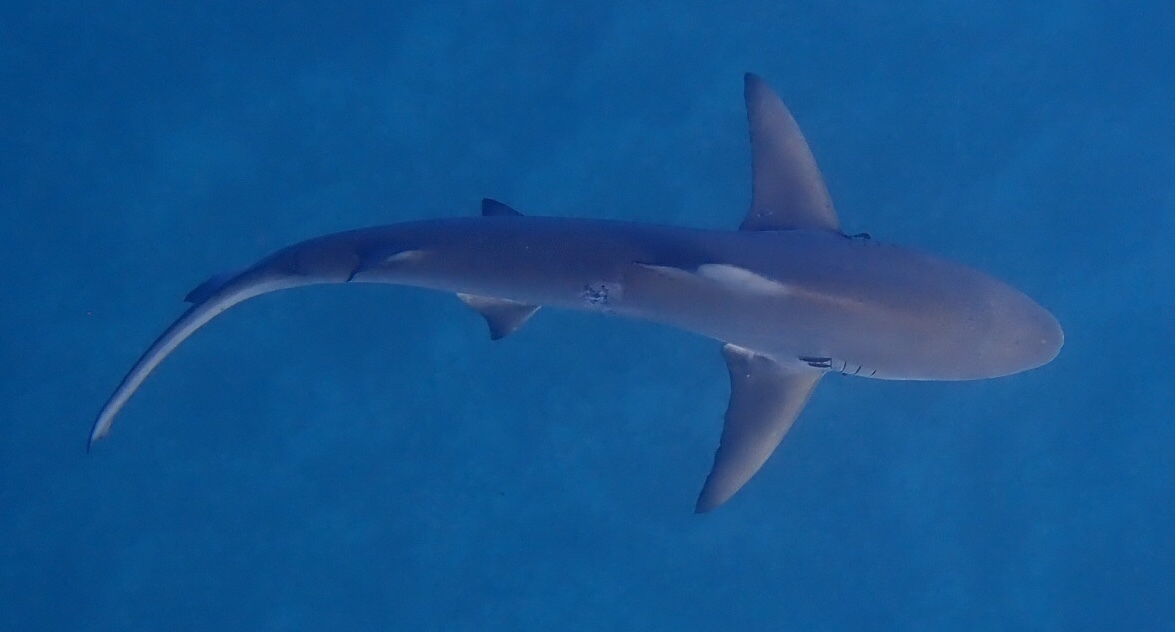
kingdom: Animalia
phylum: Chordata
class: Elasmobranchii
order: Carcharhiniformes
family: Carcharhinidae
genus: Carcharhinus
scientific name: Carcharhinus limbatus
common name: Blacktip shark
